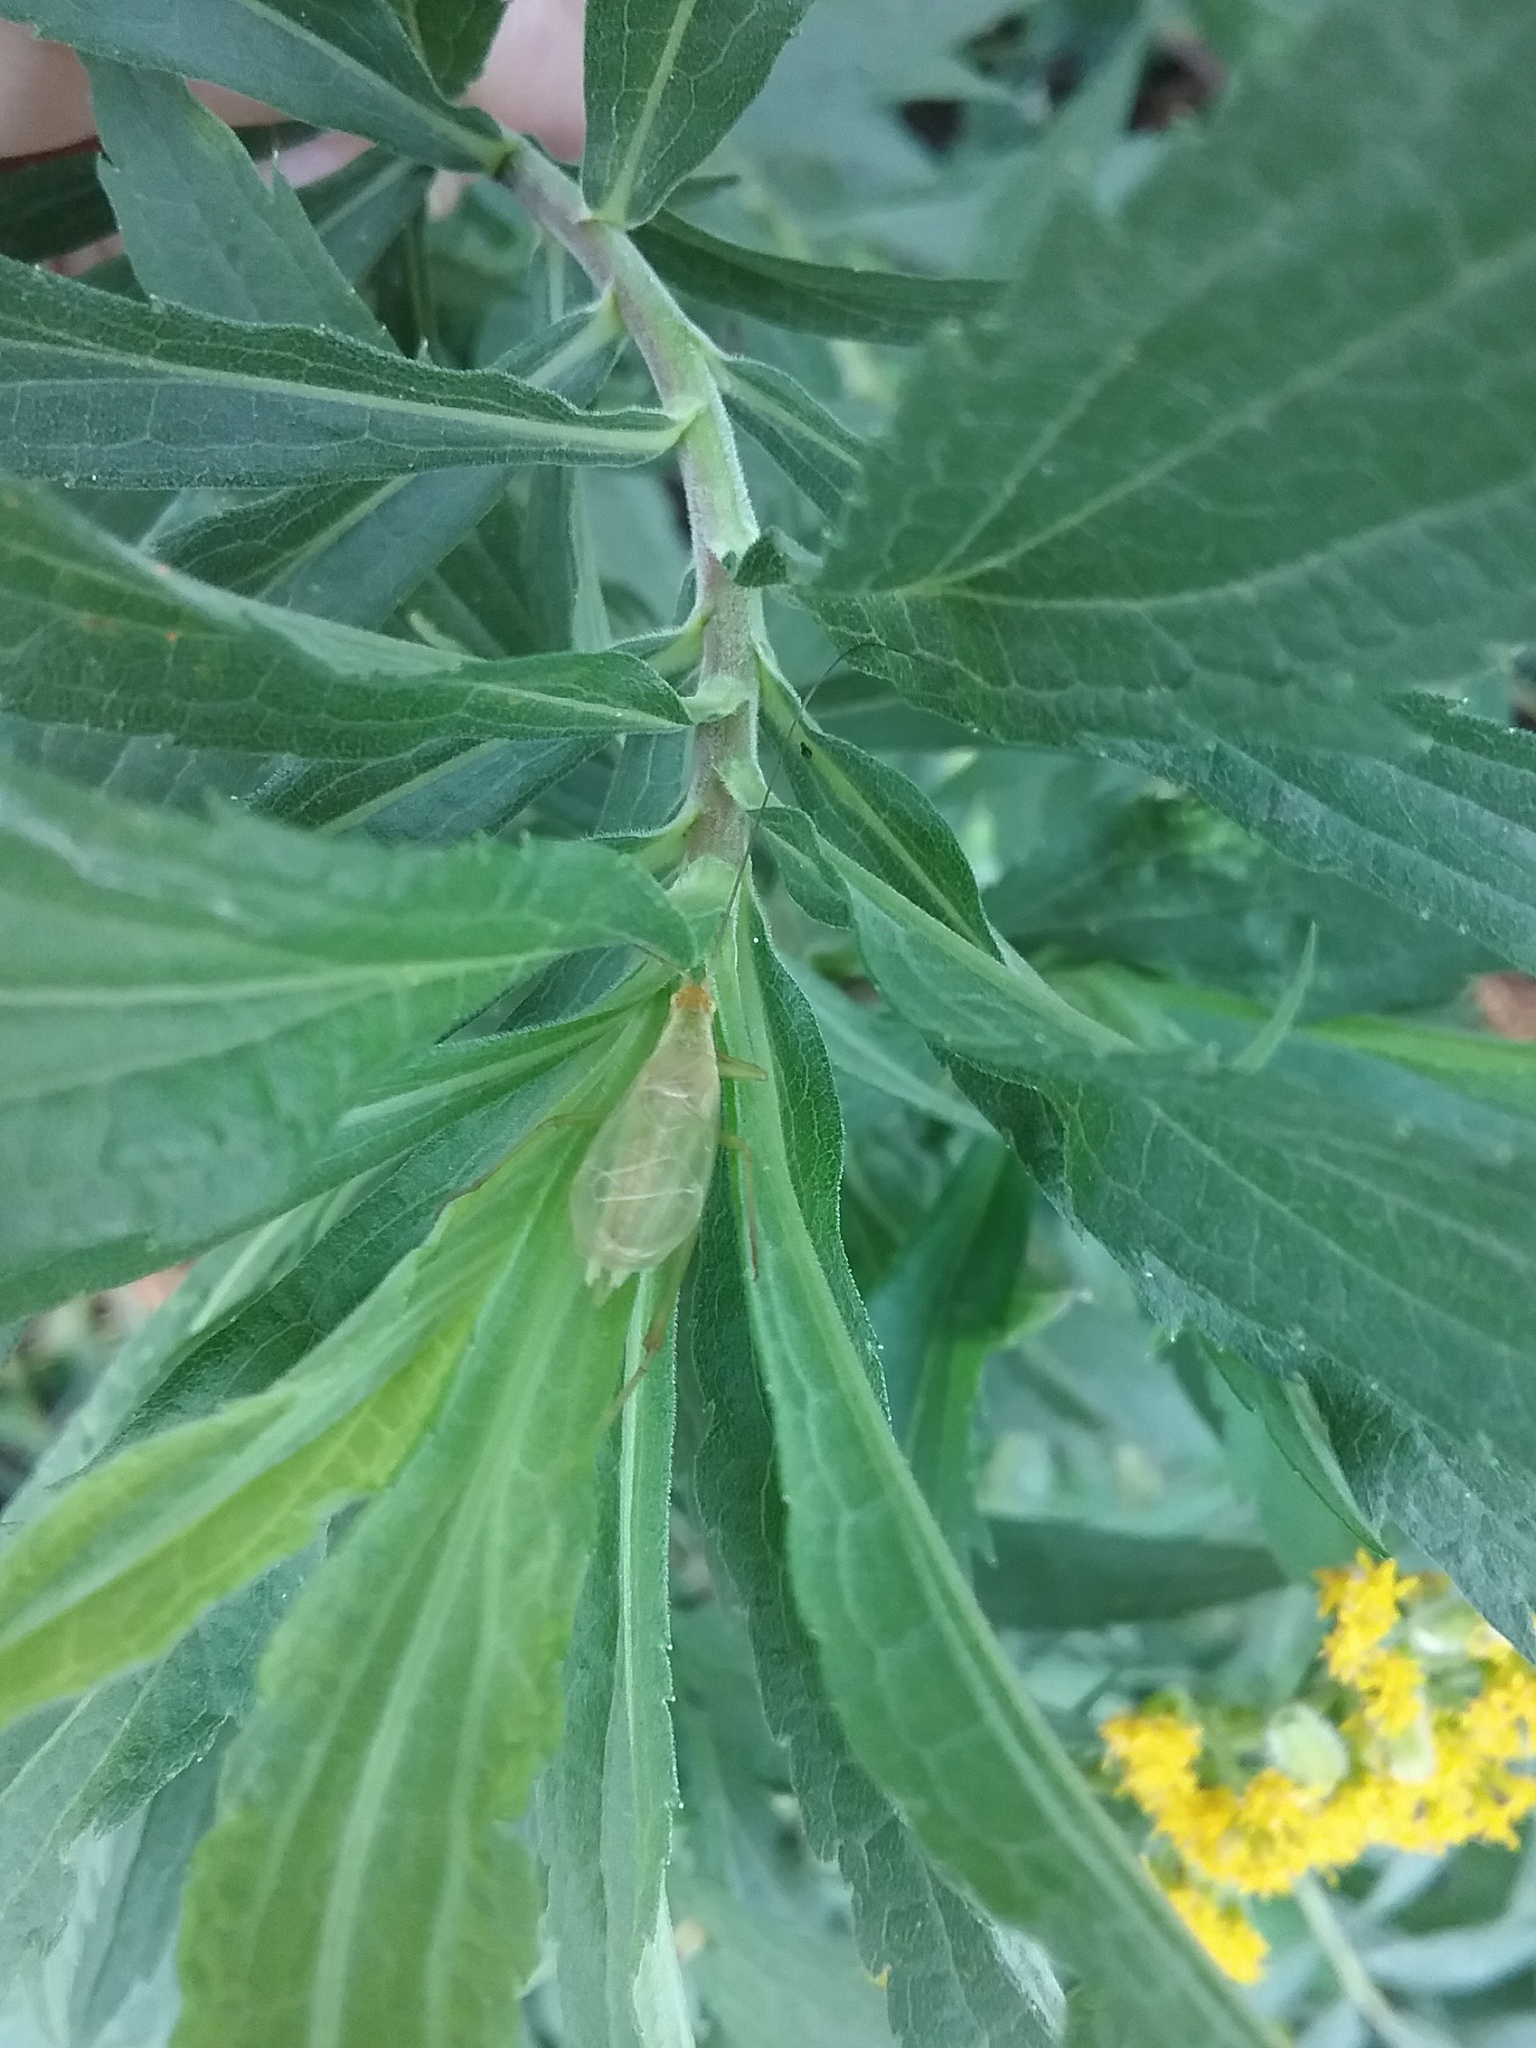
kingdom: Animalia
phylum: Arthropoda
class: Insecta
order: Orthoptera
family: Gryllidae
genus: Oecanthus
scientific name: Oecanthus fultoni
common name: Snowy tree cricket
